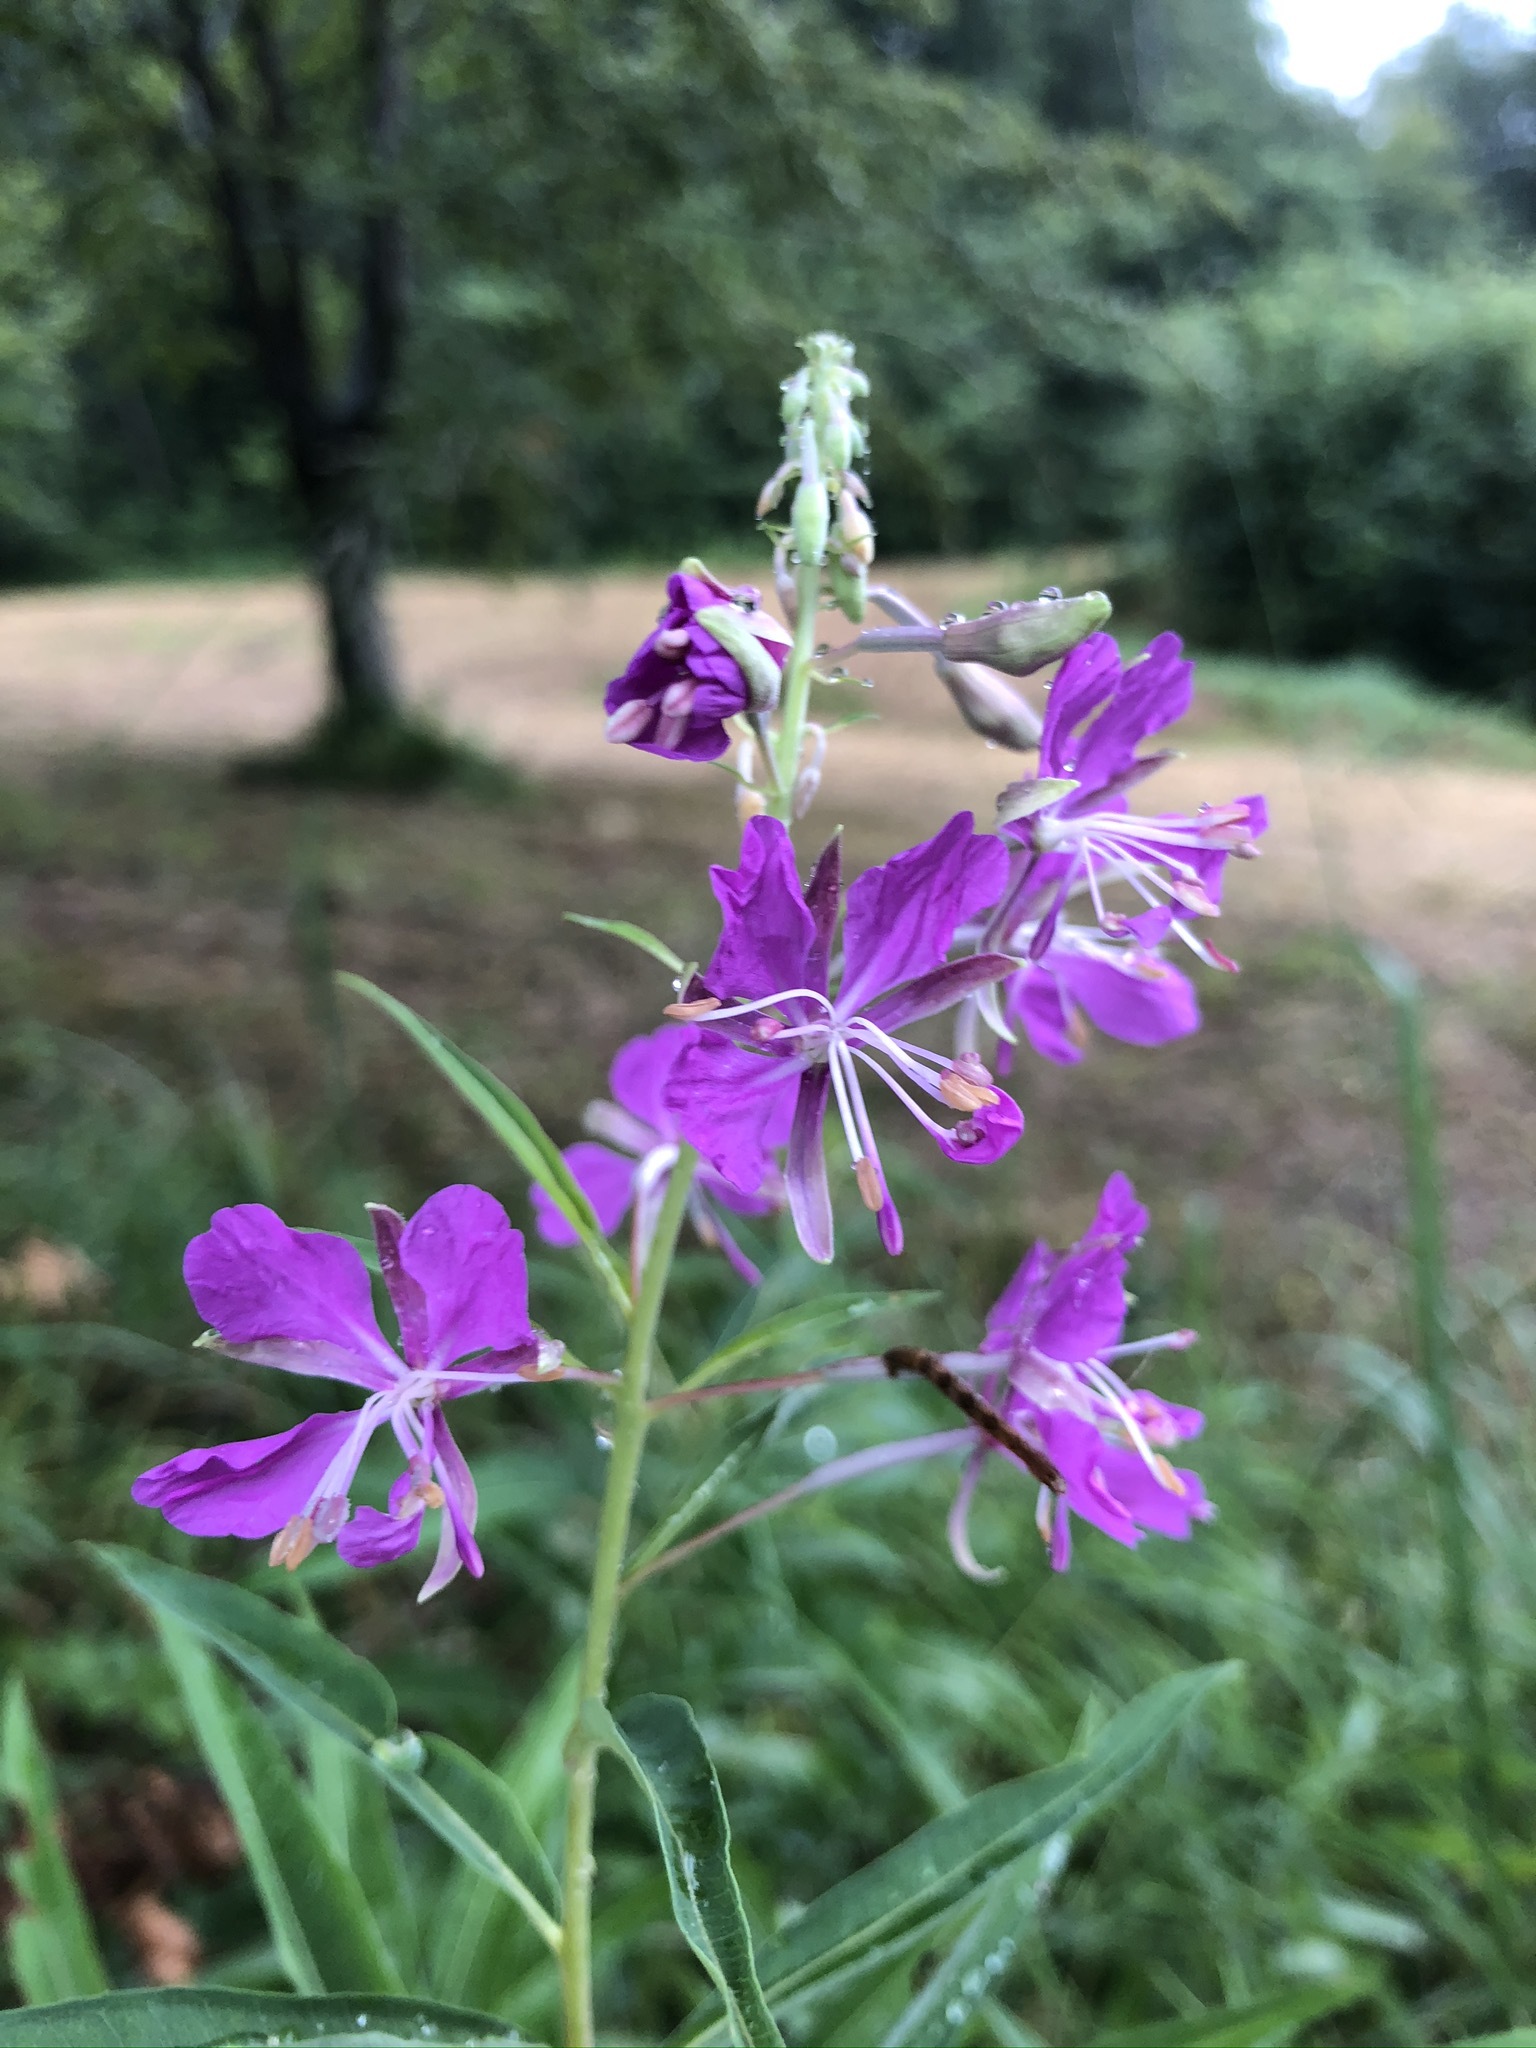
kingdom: Plantae
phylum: Tracheophyta
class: Magnoliopsida
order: Myrtales
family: Onagraceae
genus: Chamaenerion
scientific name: Chamaenerion angustifolium
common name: Fireweed
